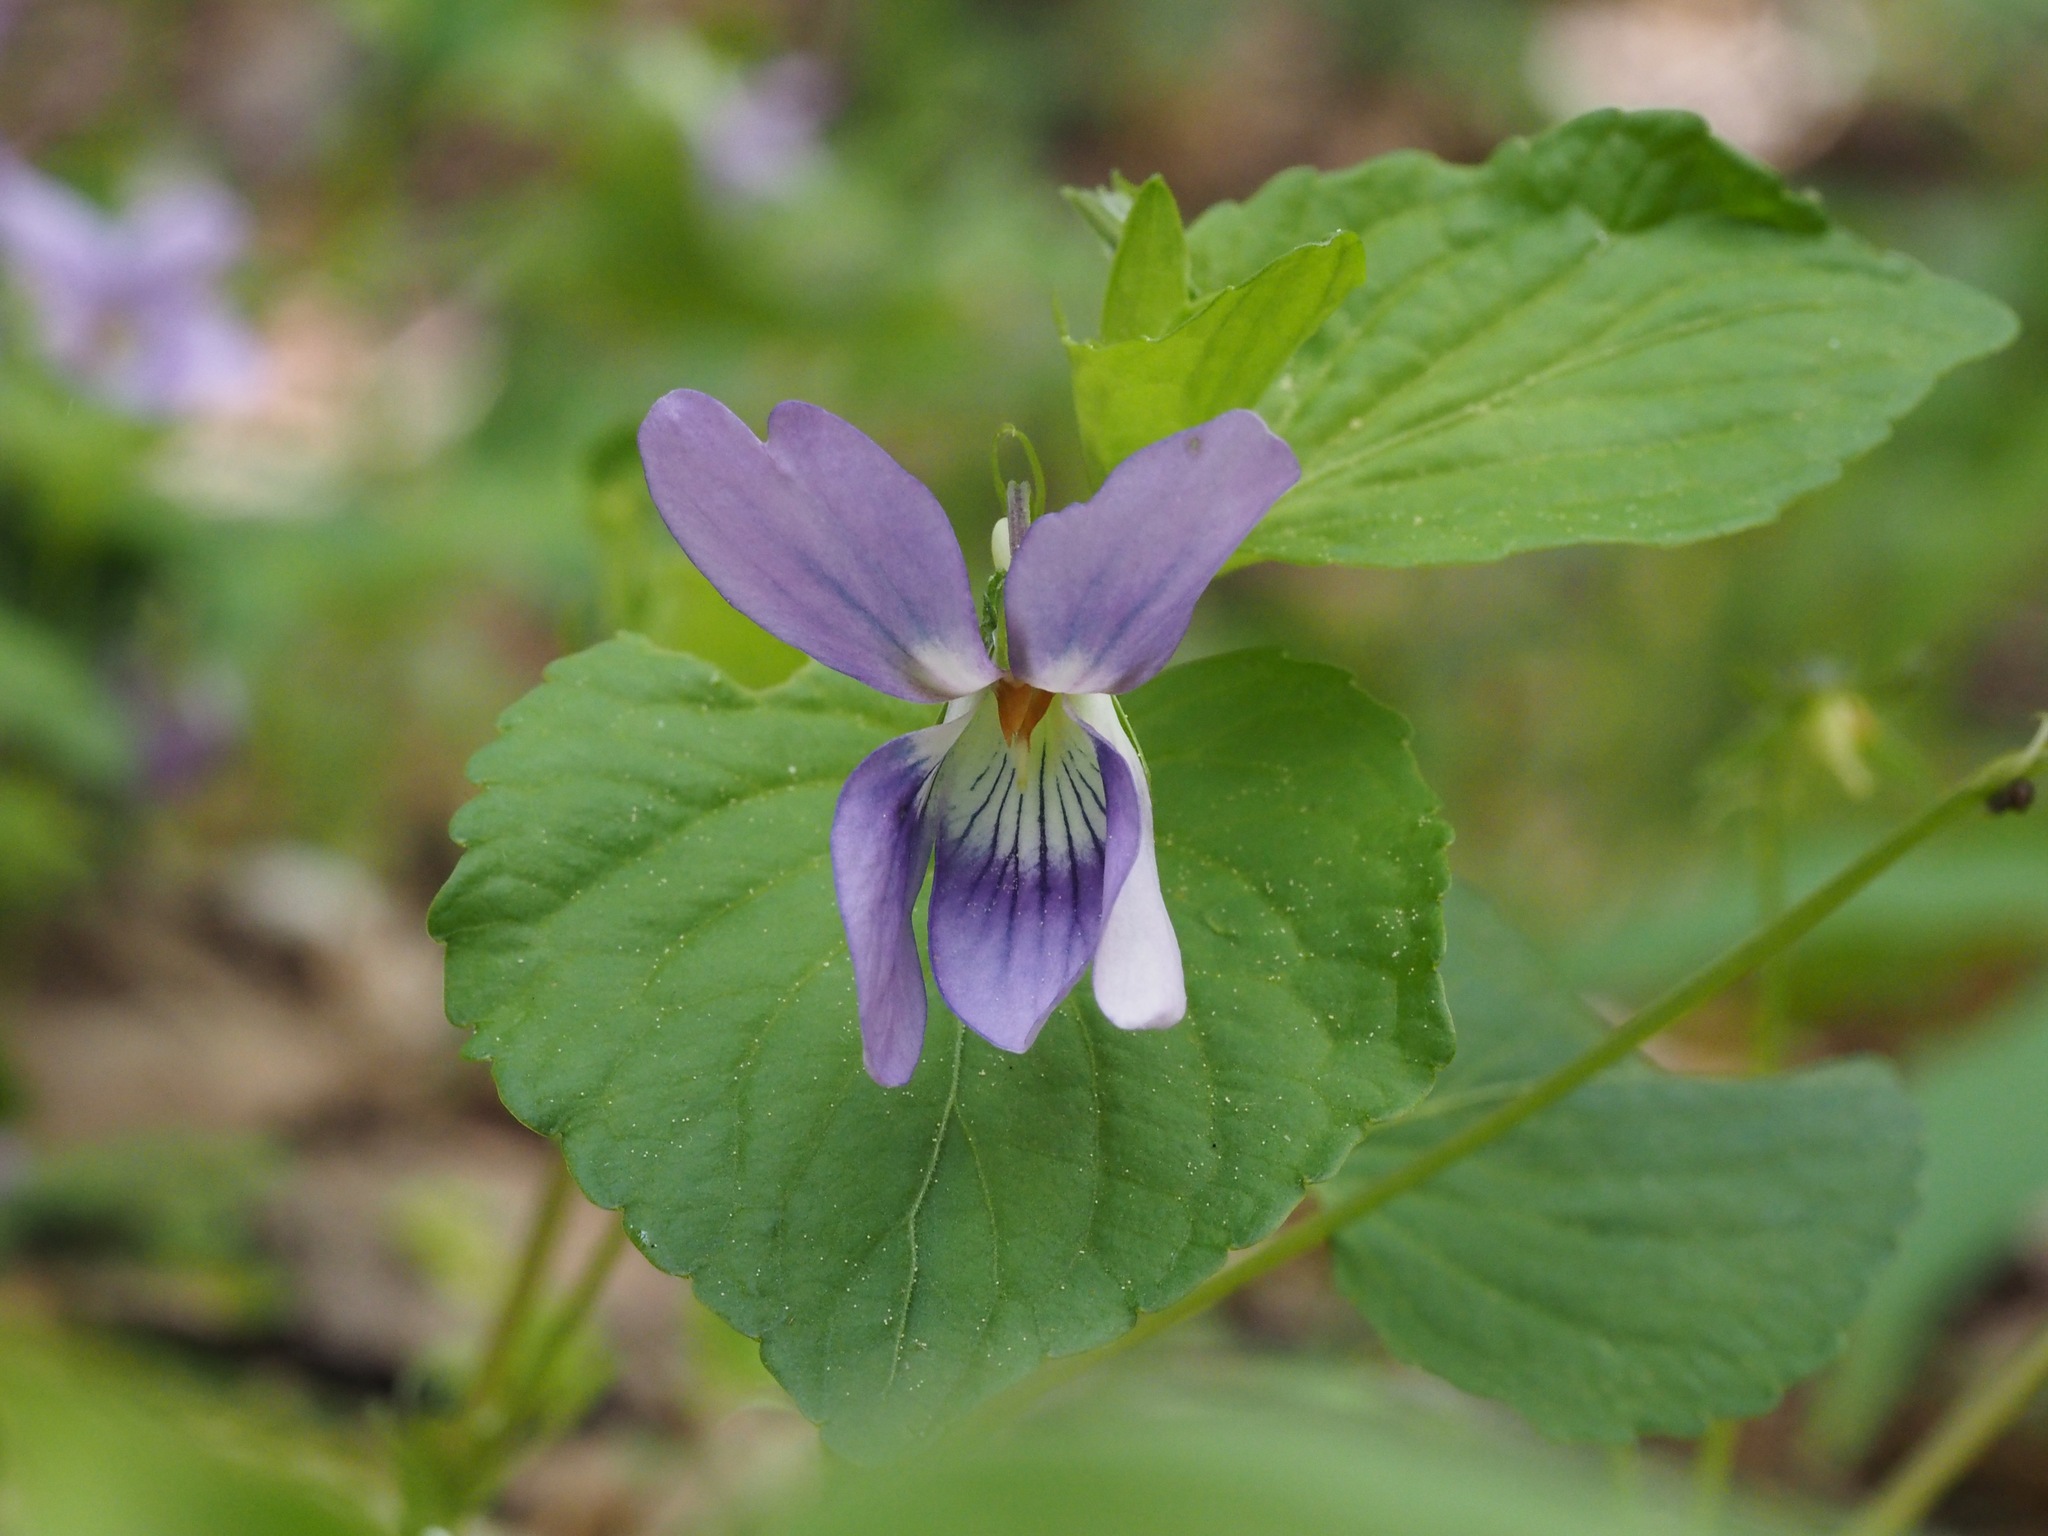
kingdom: Plantae
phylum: Tracheophyta
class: Magnoliopsida
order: Malpighiales
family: Violaceae
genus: Viola
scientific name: Viola kusanoana
